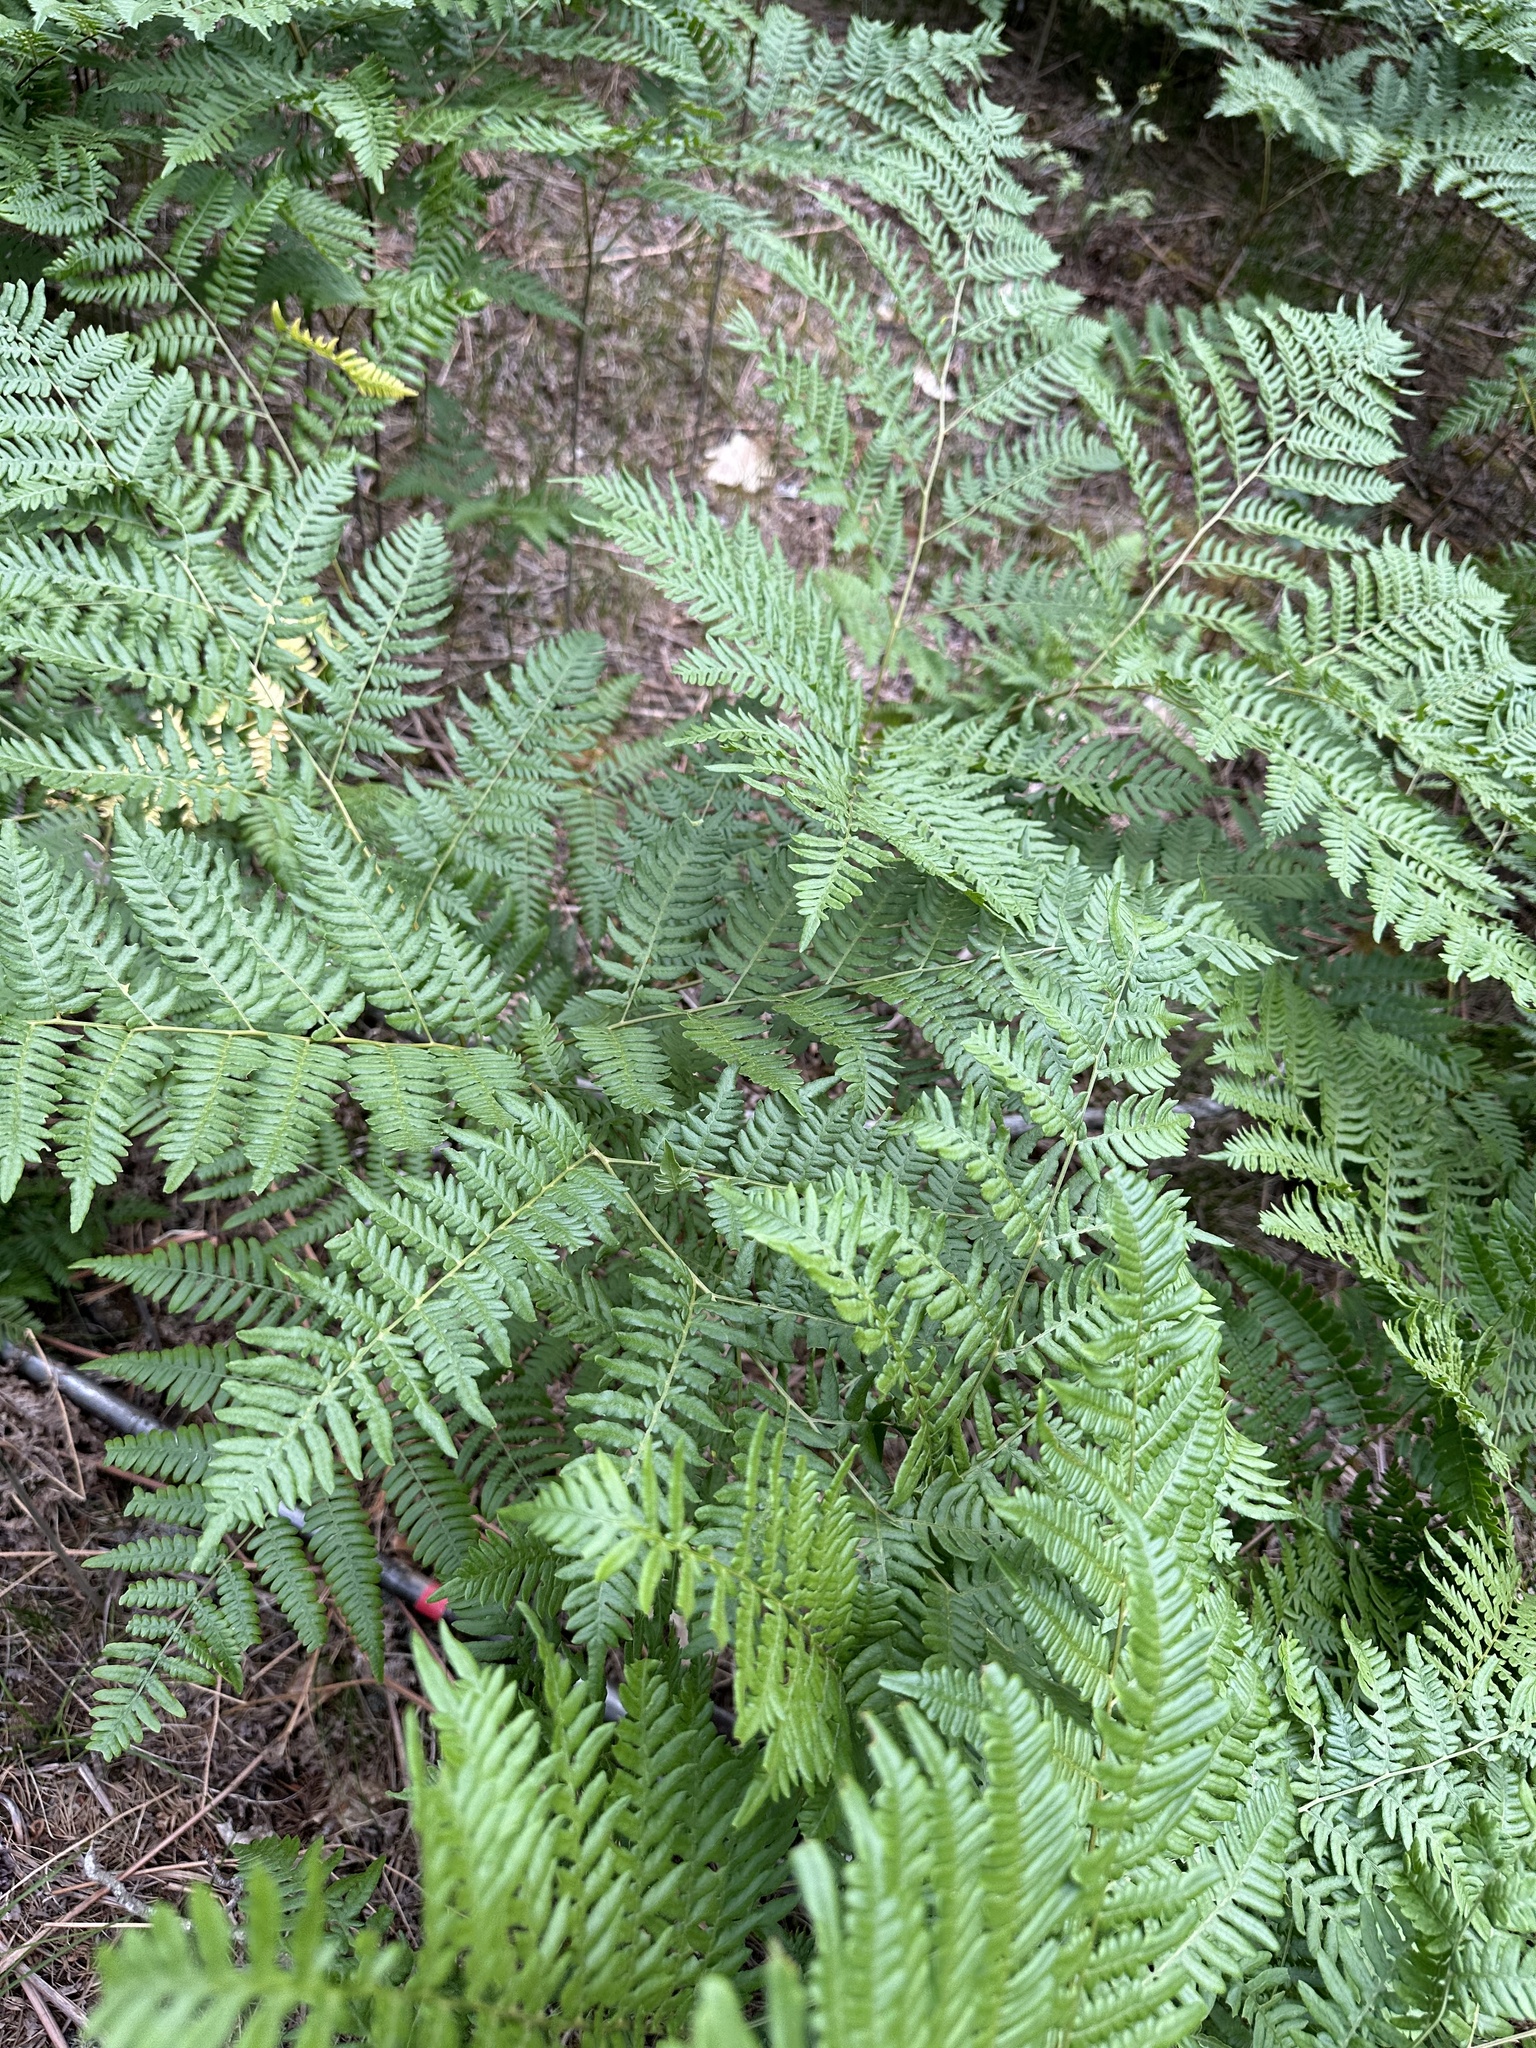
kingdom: Plantae
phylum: Tracheophyta
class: Polypodiopsida
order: Polypodiales
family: Dennstaedtiaceae
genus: Pteridium
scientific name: Pteridium aquilinum
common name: Bracken
